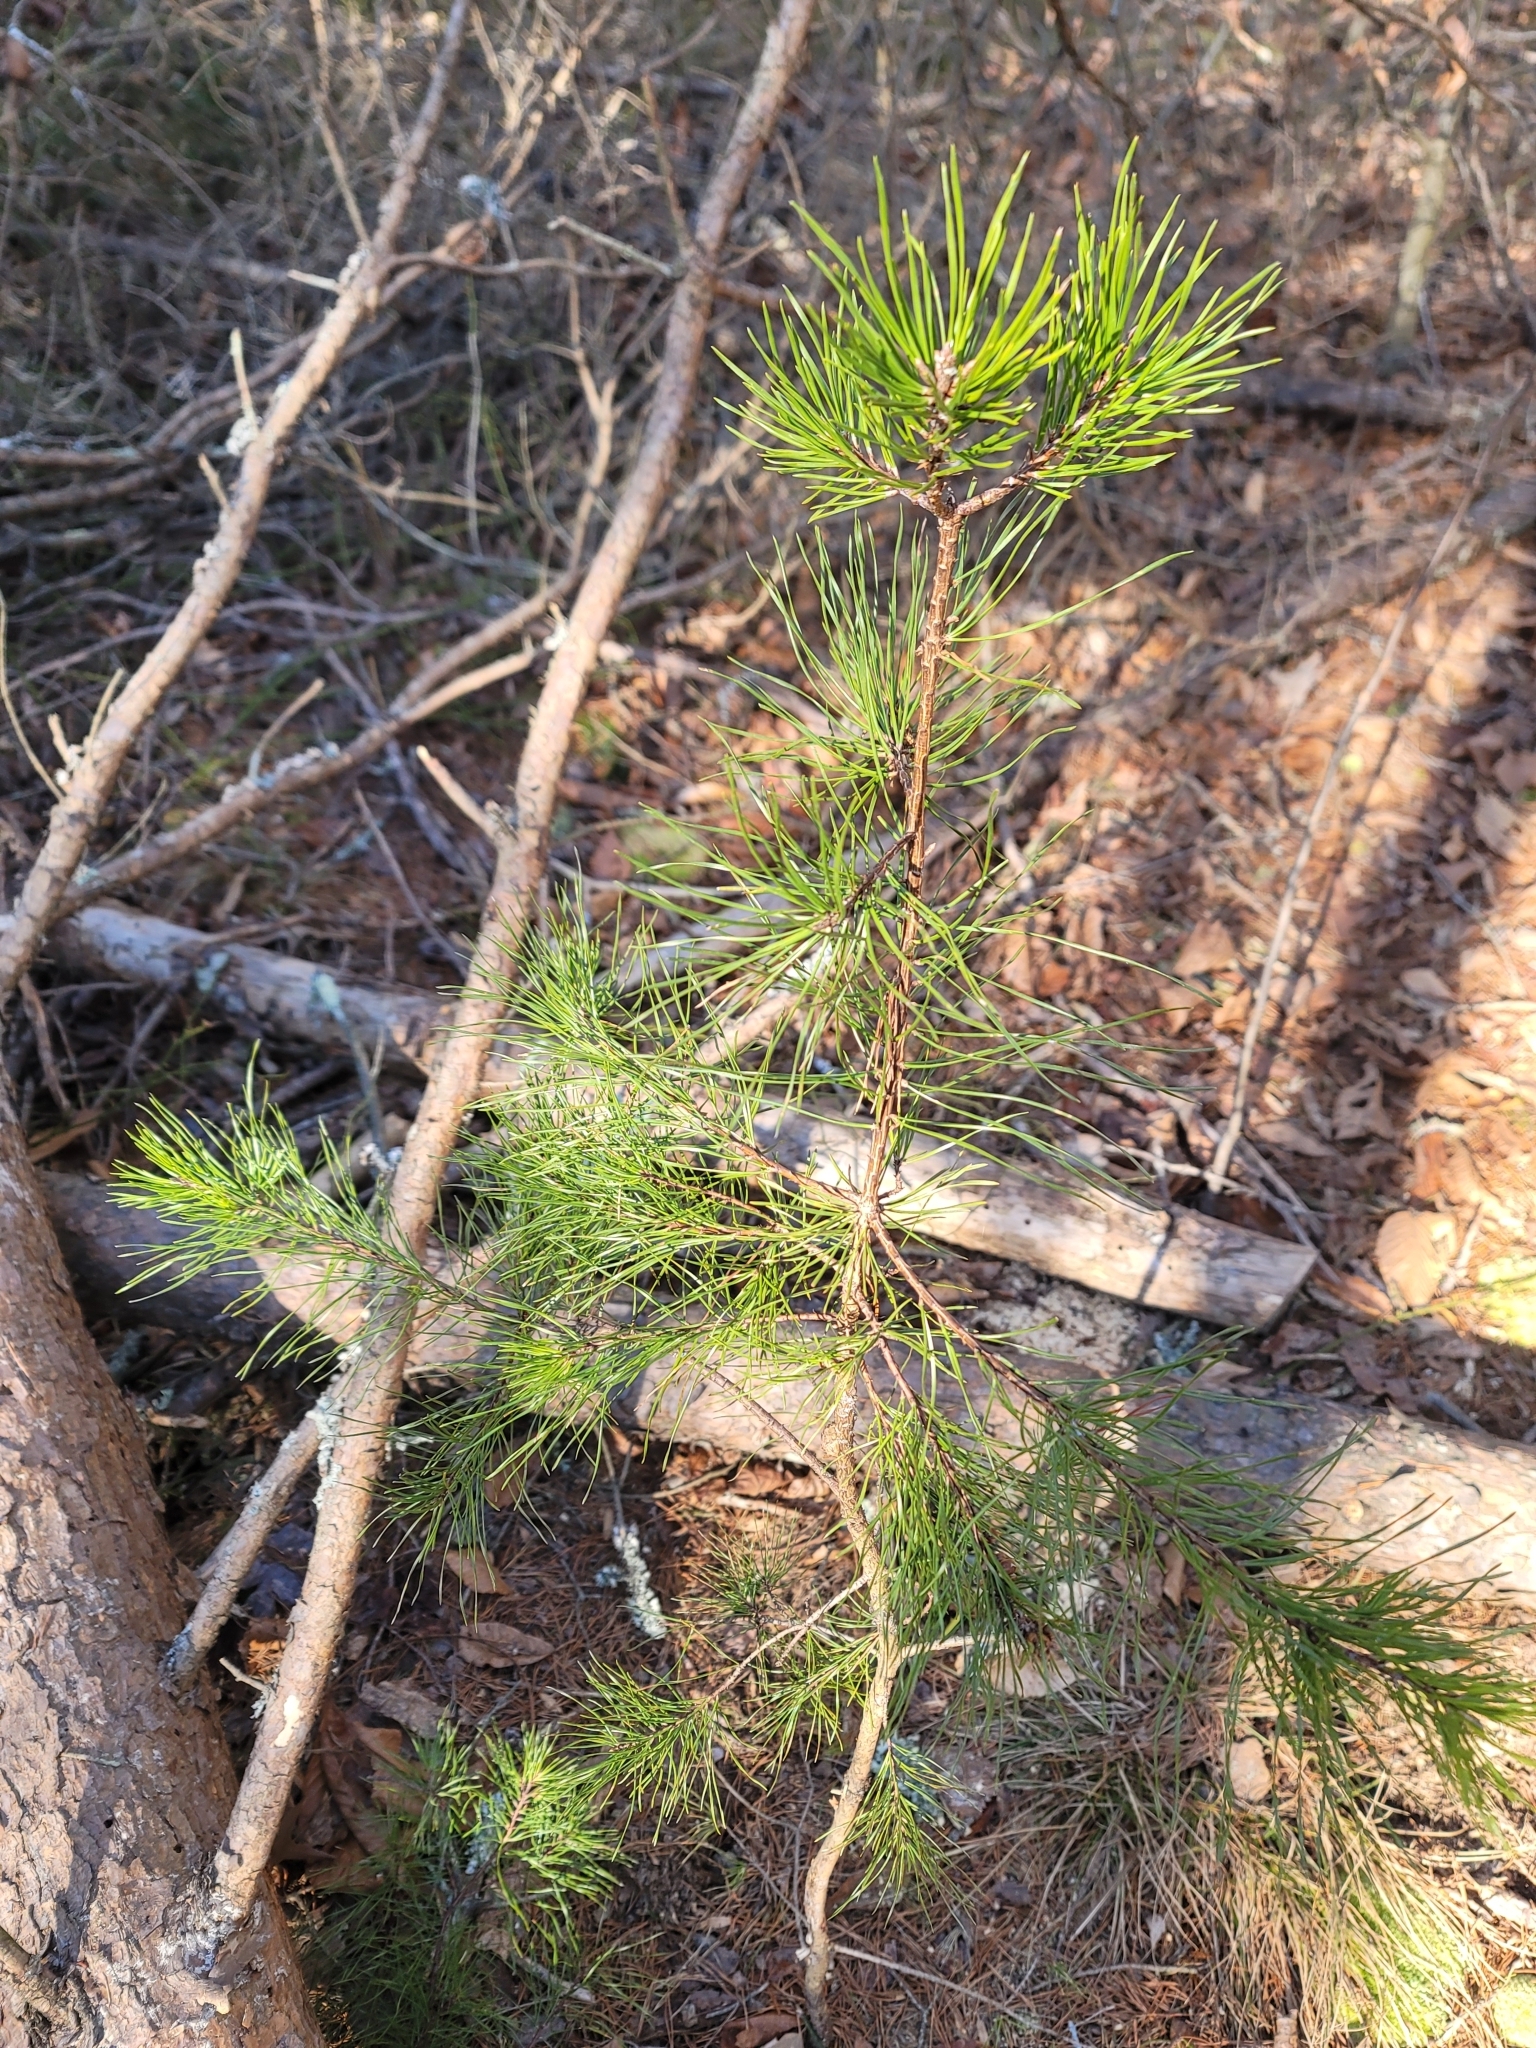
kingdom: Plantae
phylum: Tracheophyta
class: Pinopsida
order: Pinales
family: Pinaceae
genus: Pinus
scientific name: Pinus virginiana
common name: Scrub pine
